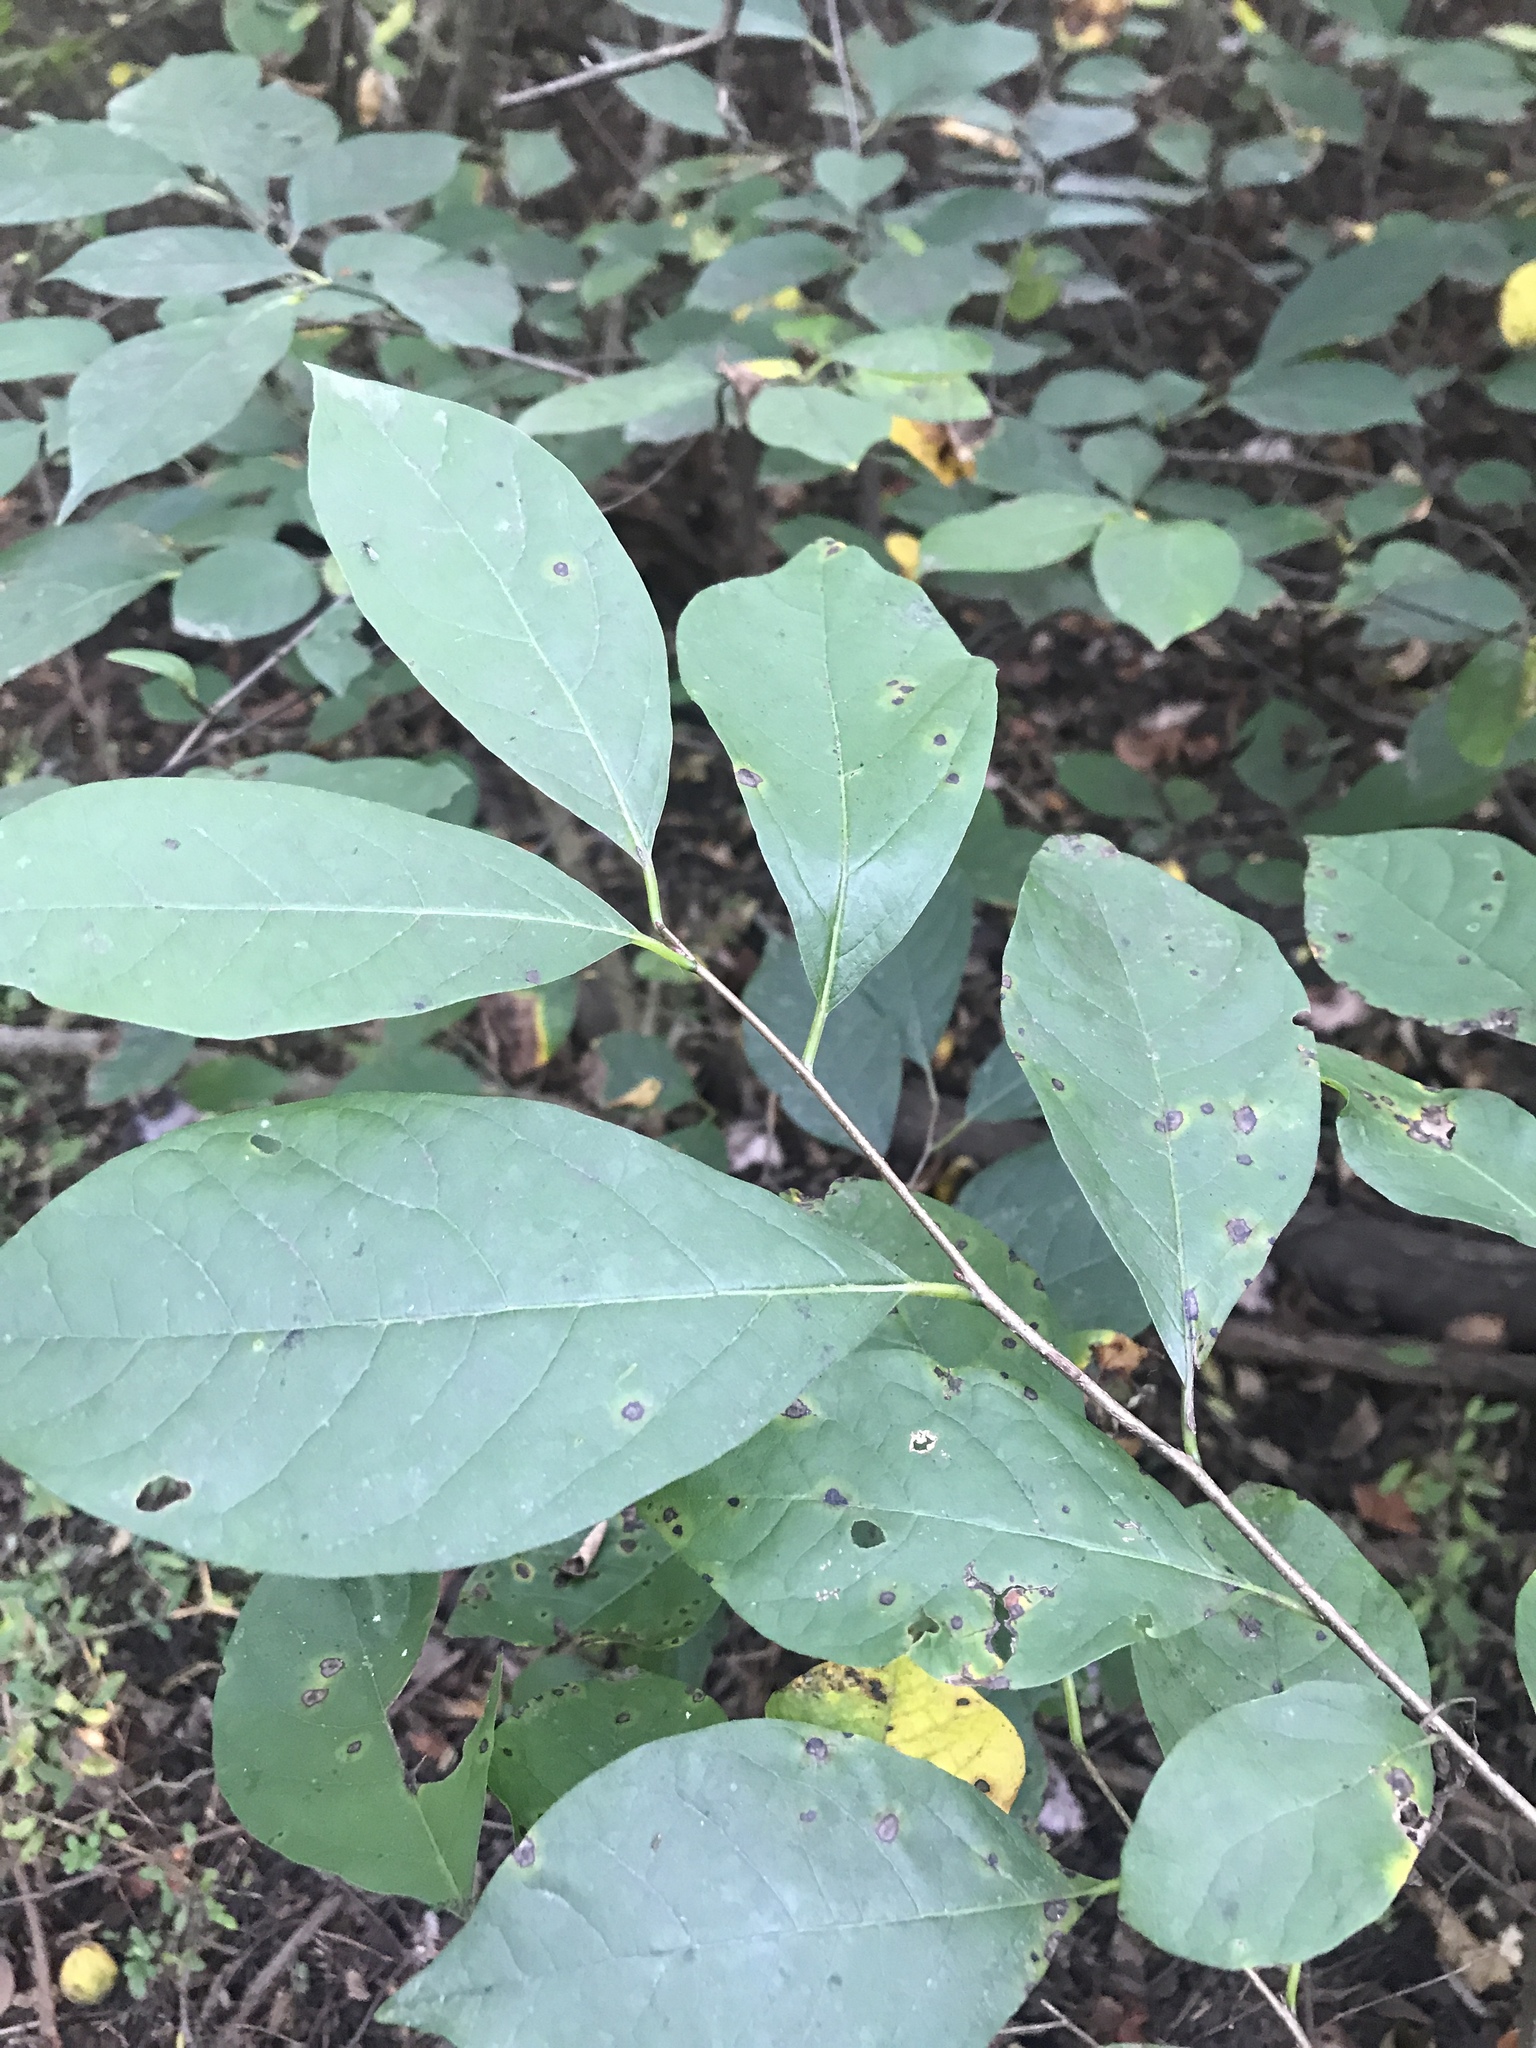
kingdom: Plantae
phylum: Tracheophyta
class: Magnoliopsida
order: Laurales
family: Lauraceae
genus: Lindera
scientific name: Lindera benzoin
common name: Spicebush
